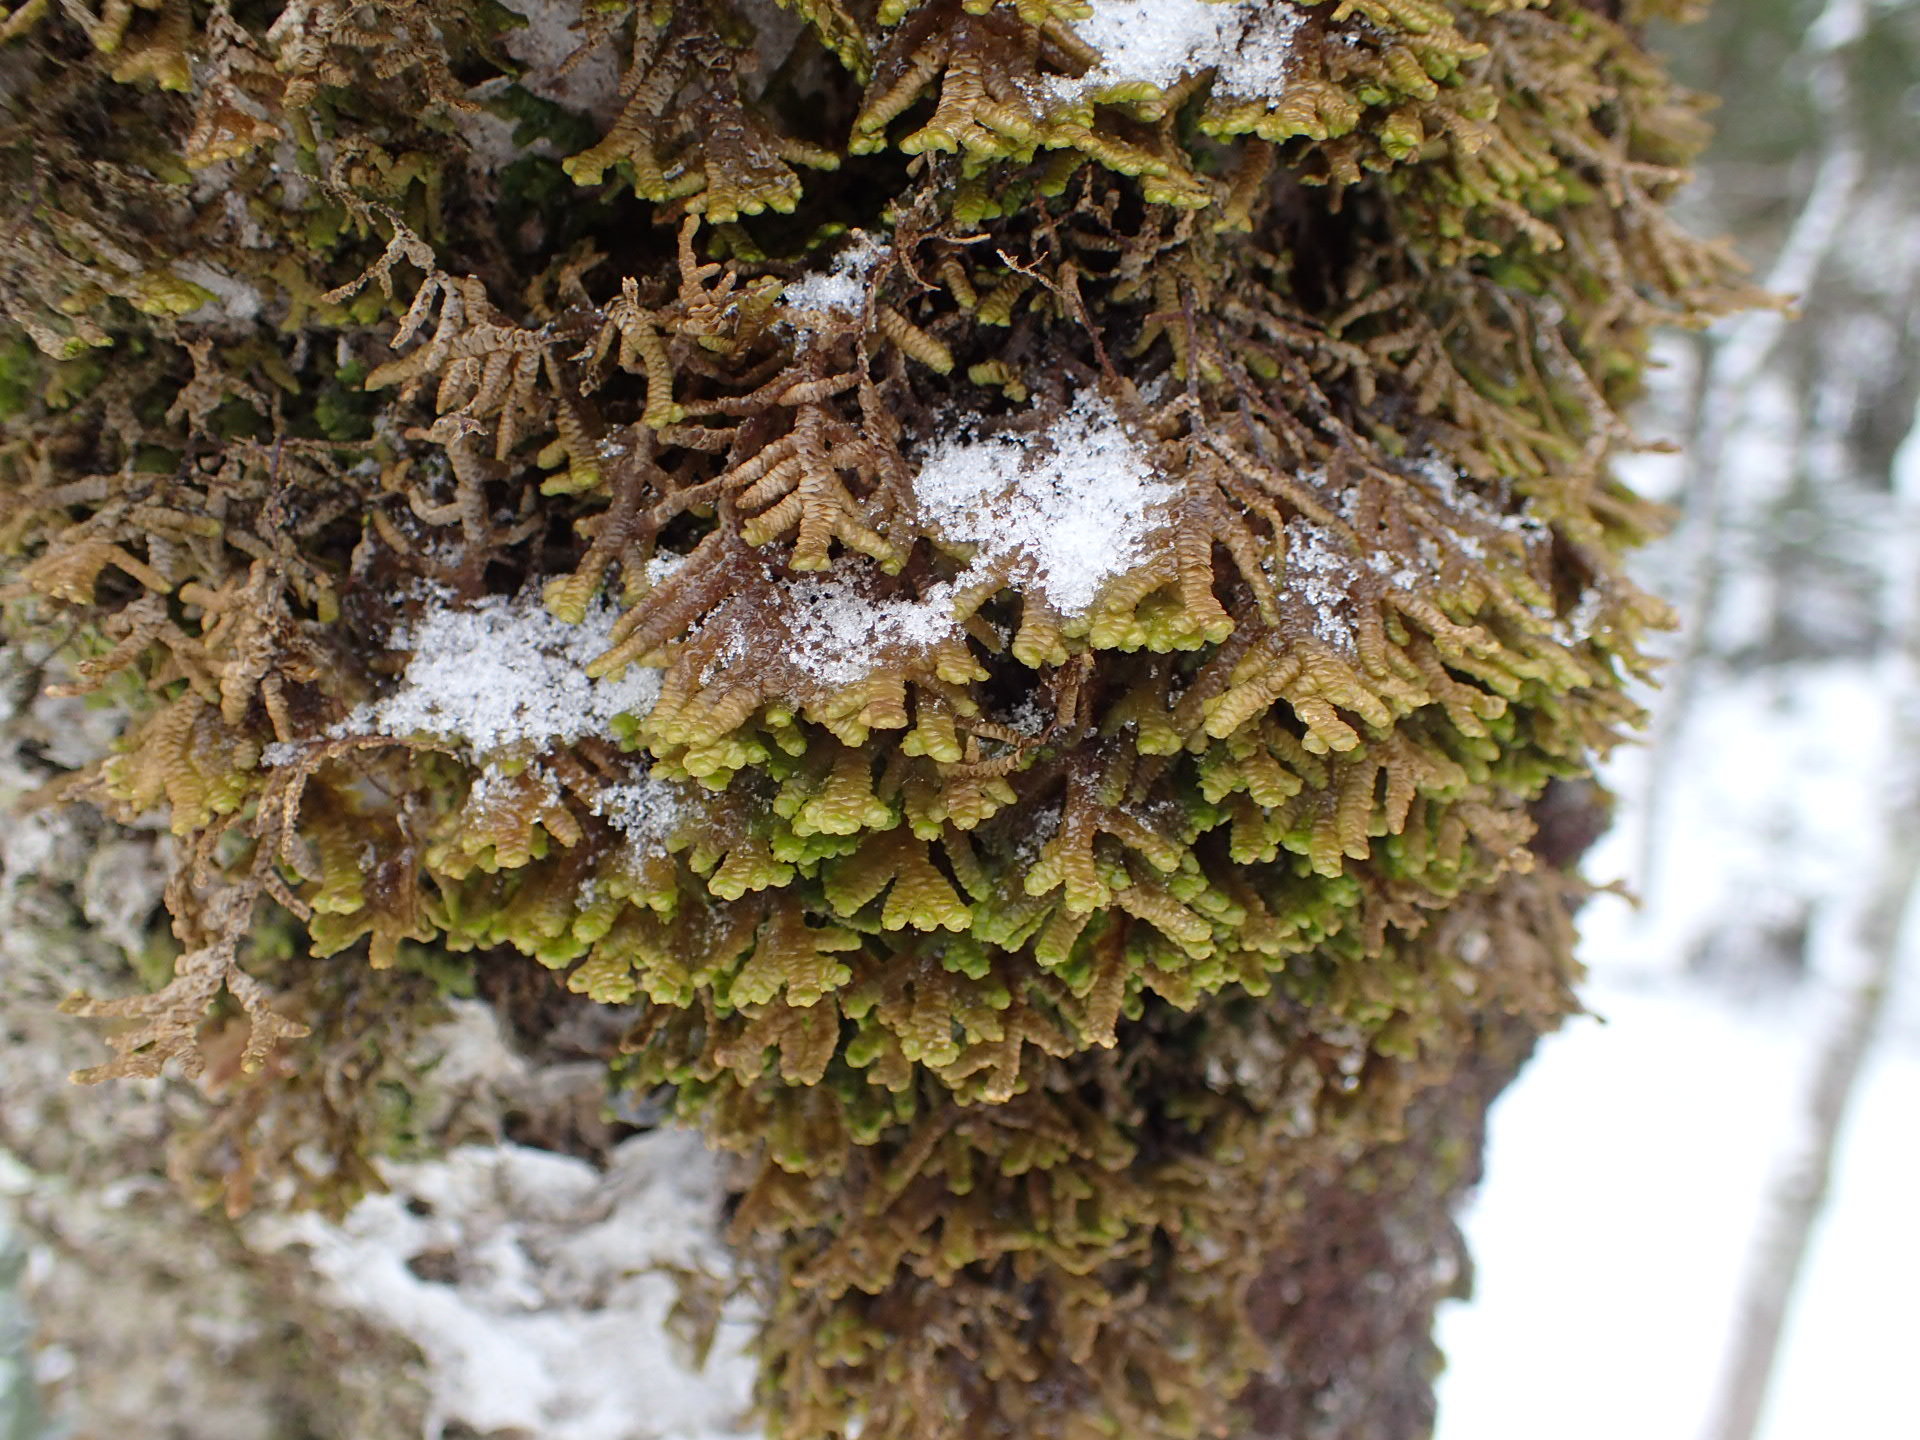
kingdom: Plantae
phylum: Marchantiophyta
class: Jungermanniopsida
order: Porellales
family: Porellaceae
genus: Porella
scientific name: Porella platyphylla
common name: Wall scalewort
